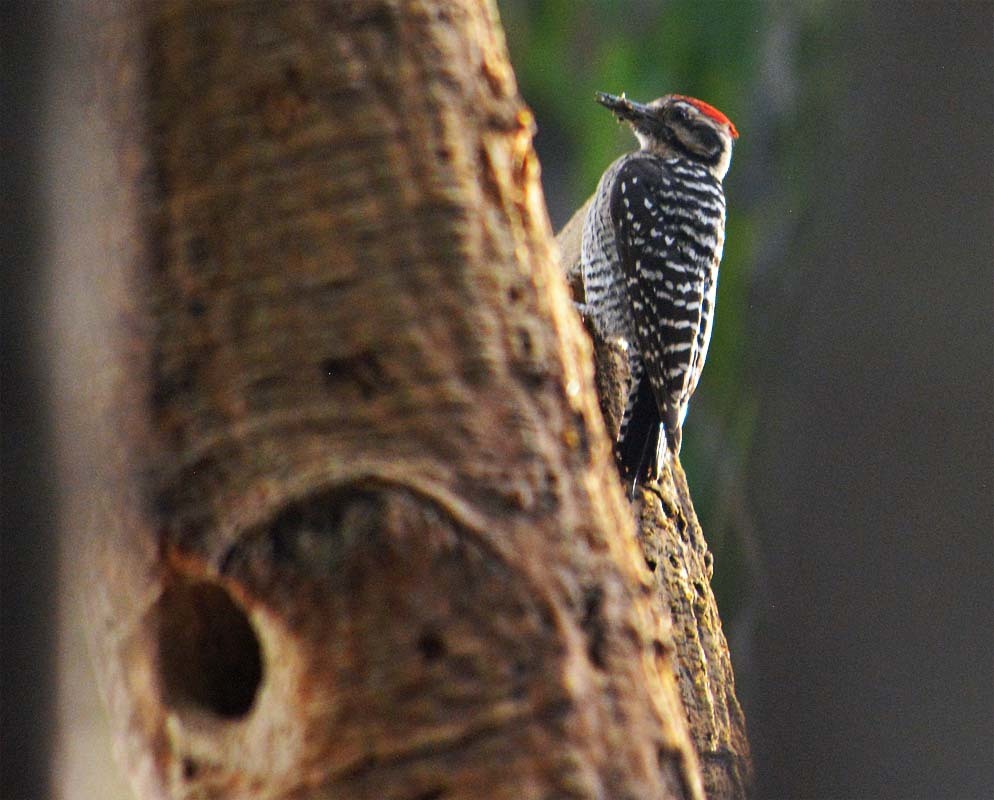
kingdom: Animalia
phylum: Chordata
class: Aves
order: Piciformes
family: Picidae
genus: Dryobates
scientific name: Dryobates scalaris
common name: Ladder-backed woodpecker
